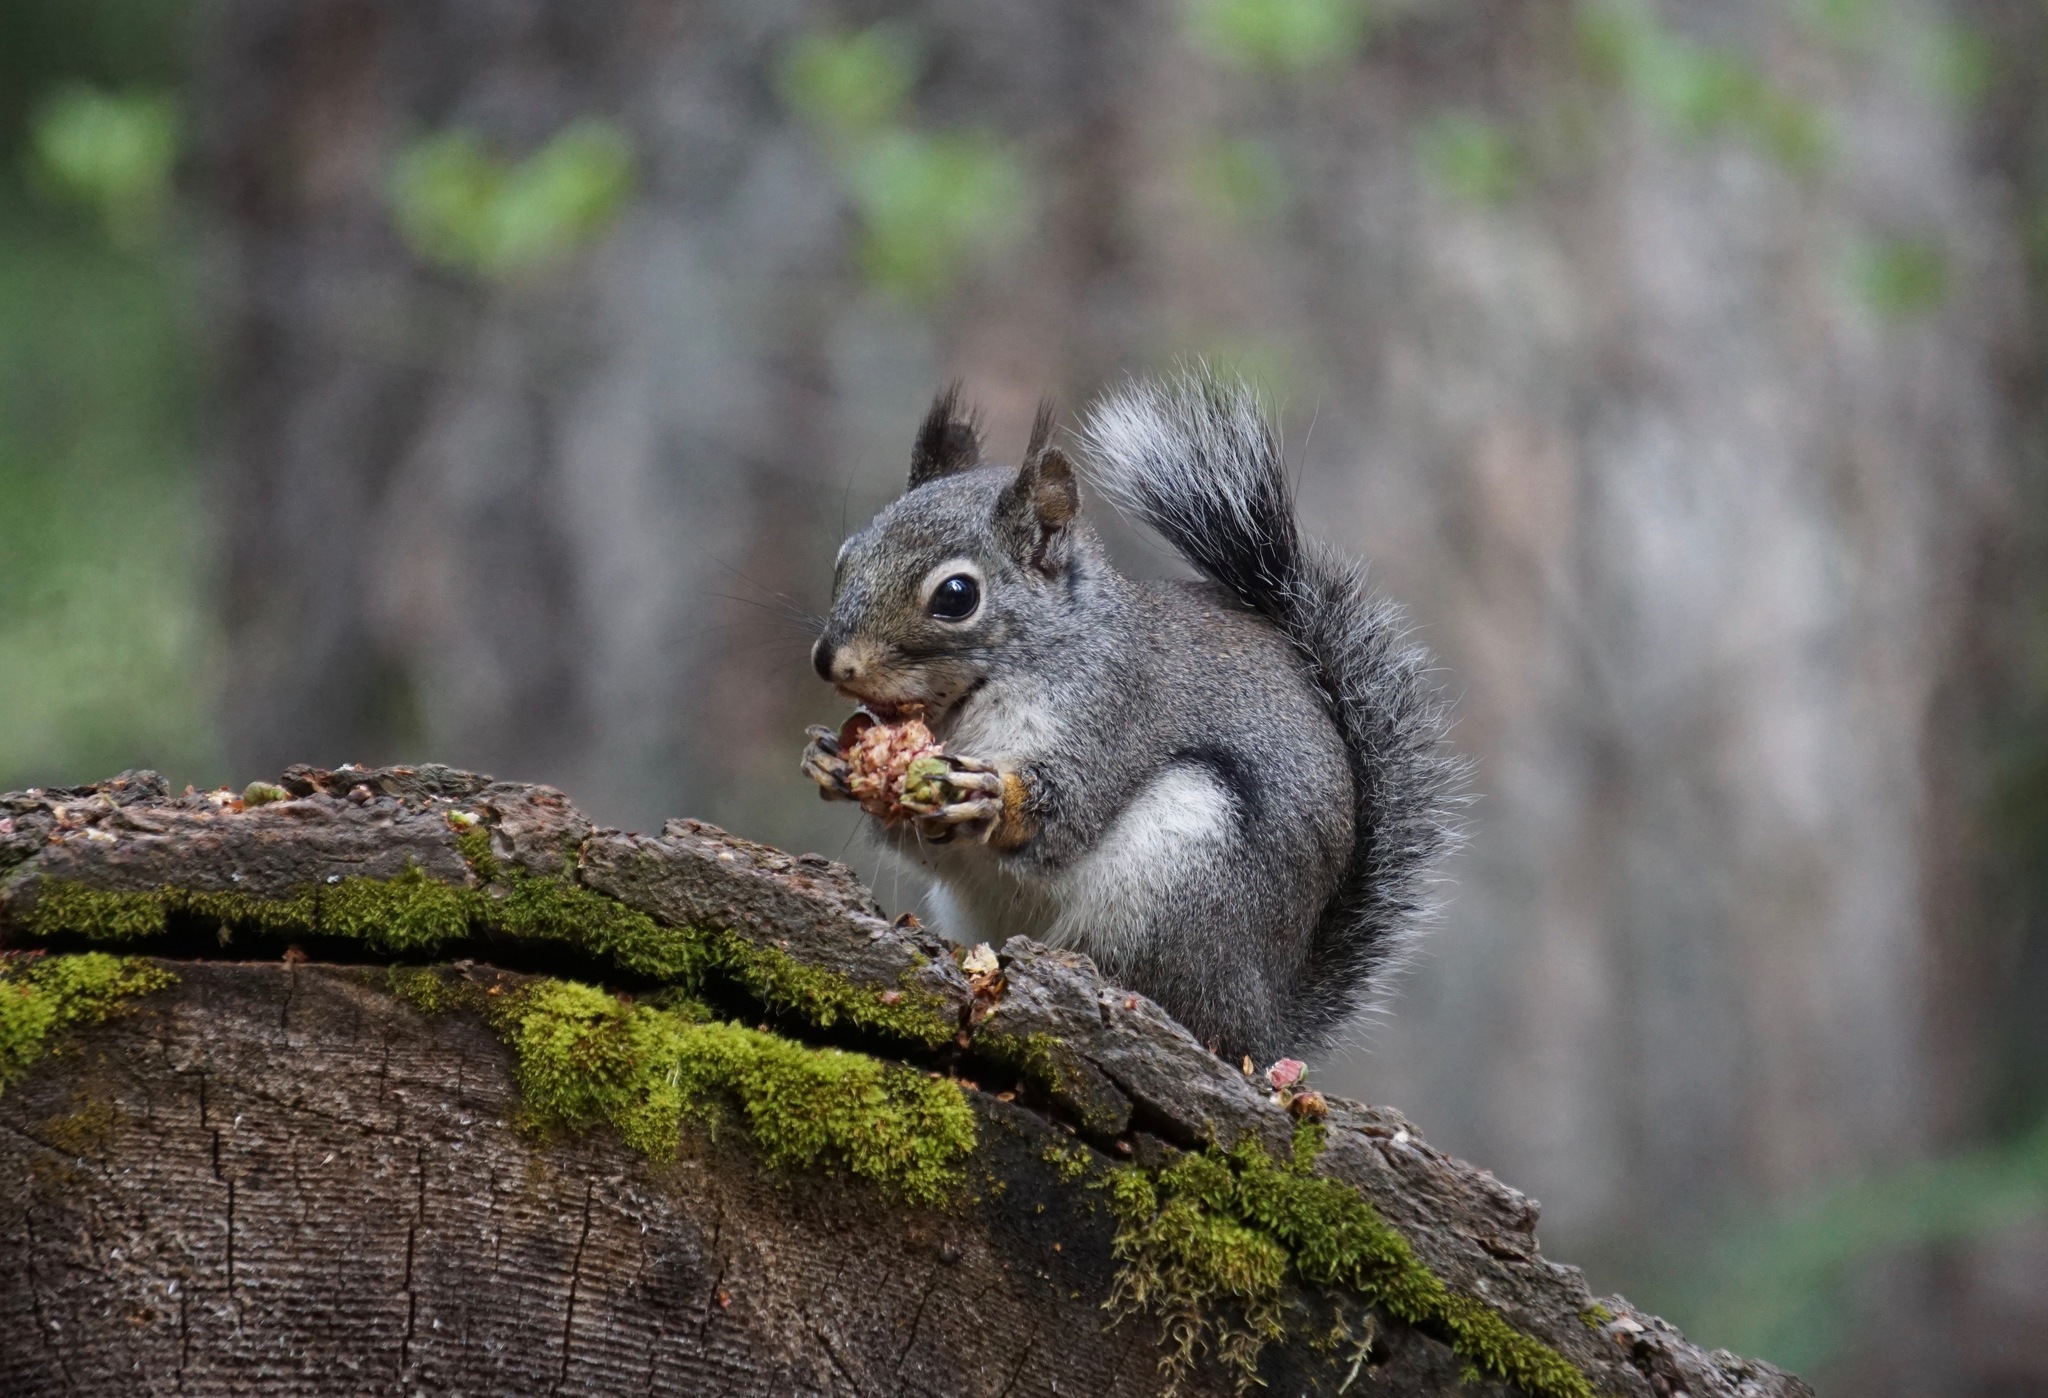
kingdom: Animalia
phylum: Chordata
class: Mammalia
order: Rodentia
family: Sciuridae
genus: Tamiasciurus
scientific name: Tamiasciurus douglasii
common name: Douglas's squirrel
